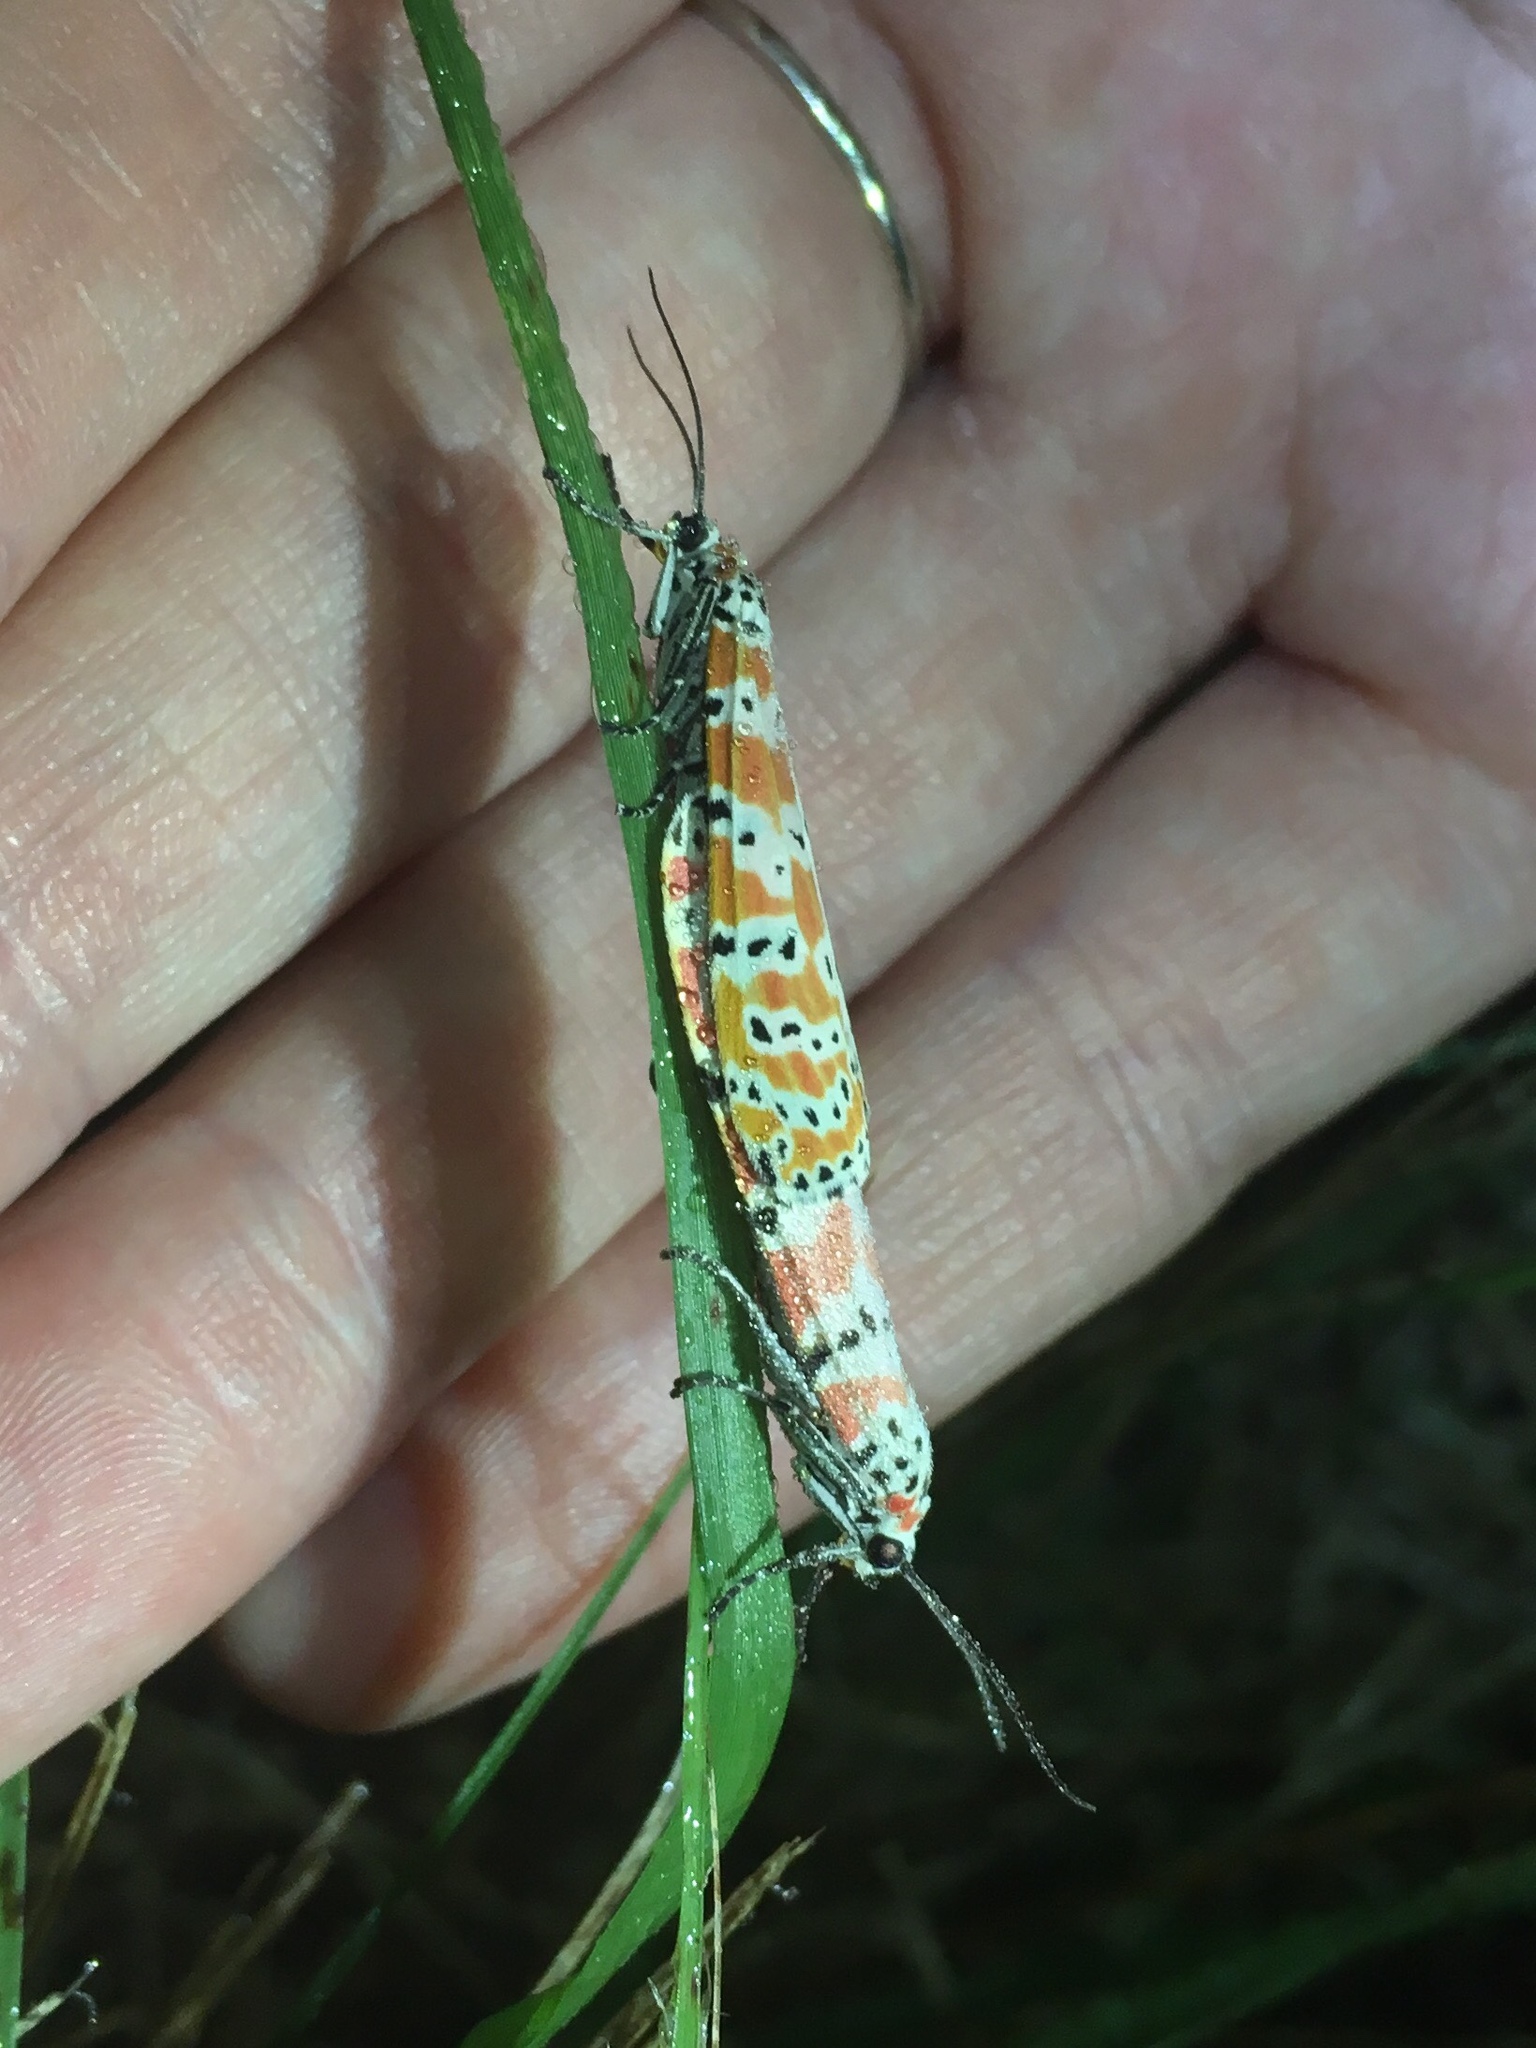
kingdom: Animalia
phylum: Arthropoda
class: Insecta
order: Lepidoptera
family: Erebidae
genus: Utetheisa
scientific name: Utetheisa ornatrix
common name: Beautiful utetheisa
